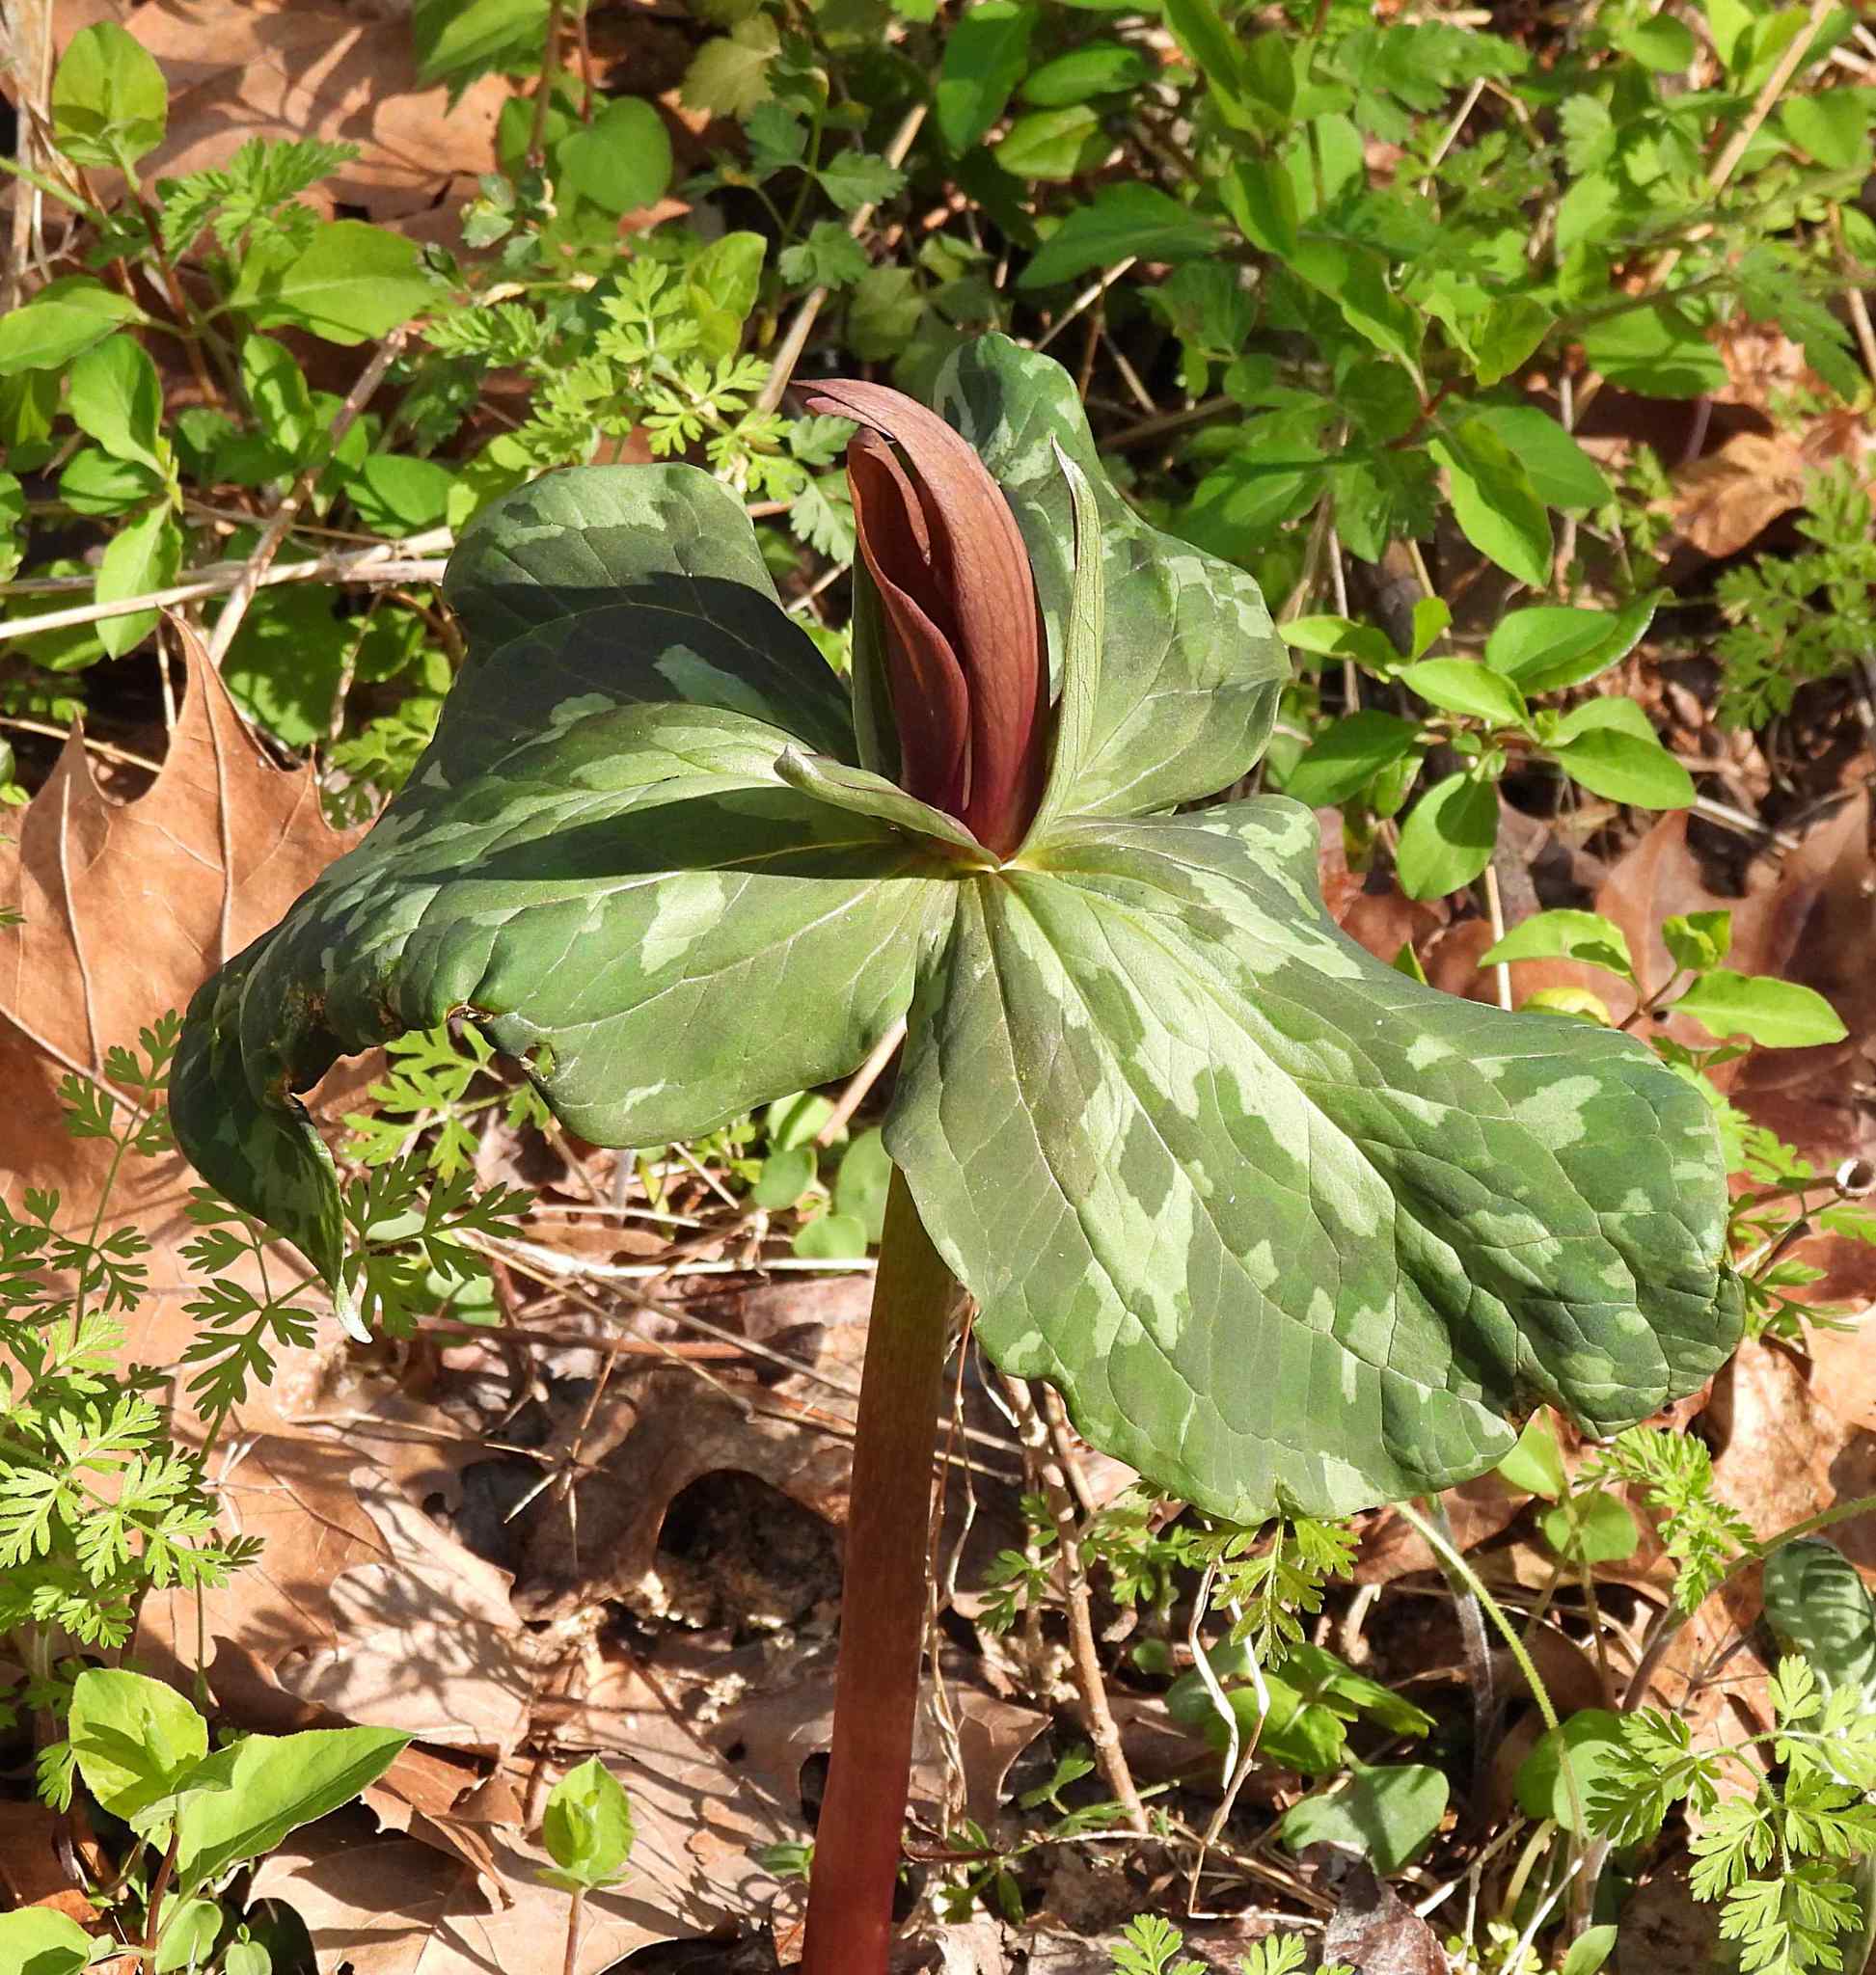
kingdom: Plantae
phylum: Tracheophyta
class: Liliopsida
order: Liliales
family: Melanthiaceae
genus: Trillium
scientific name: Trillium cuneatum
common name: Cuneate trillium
